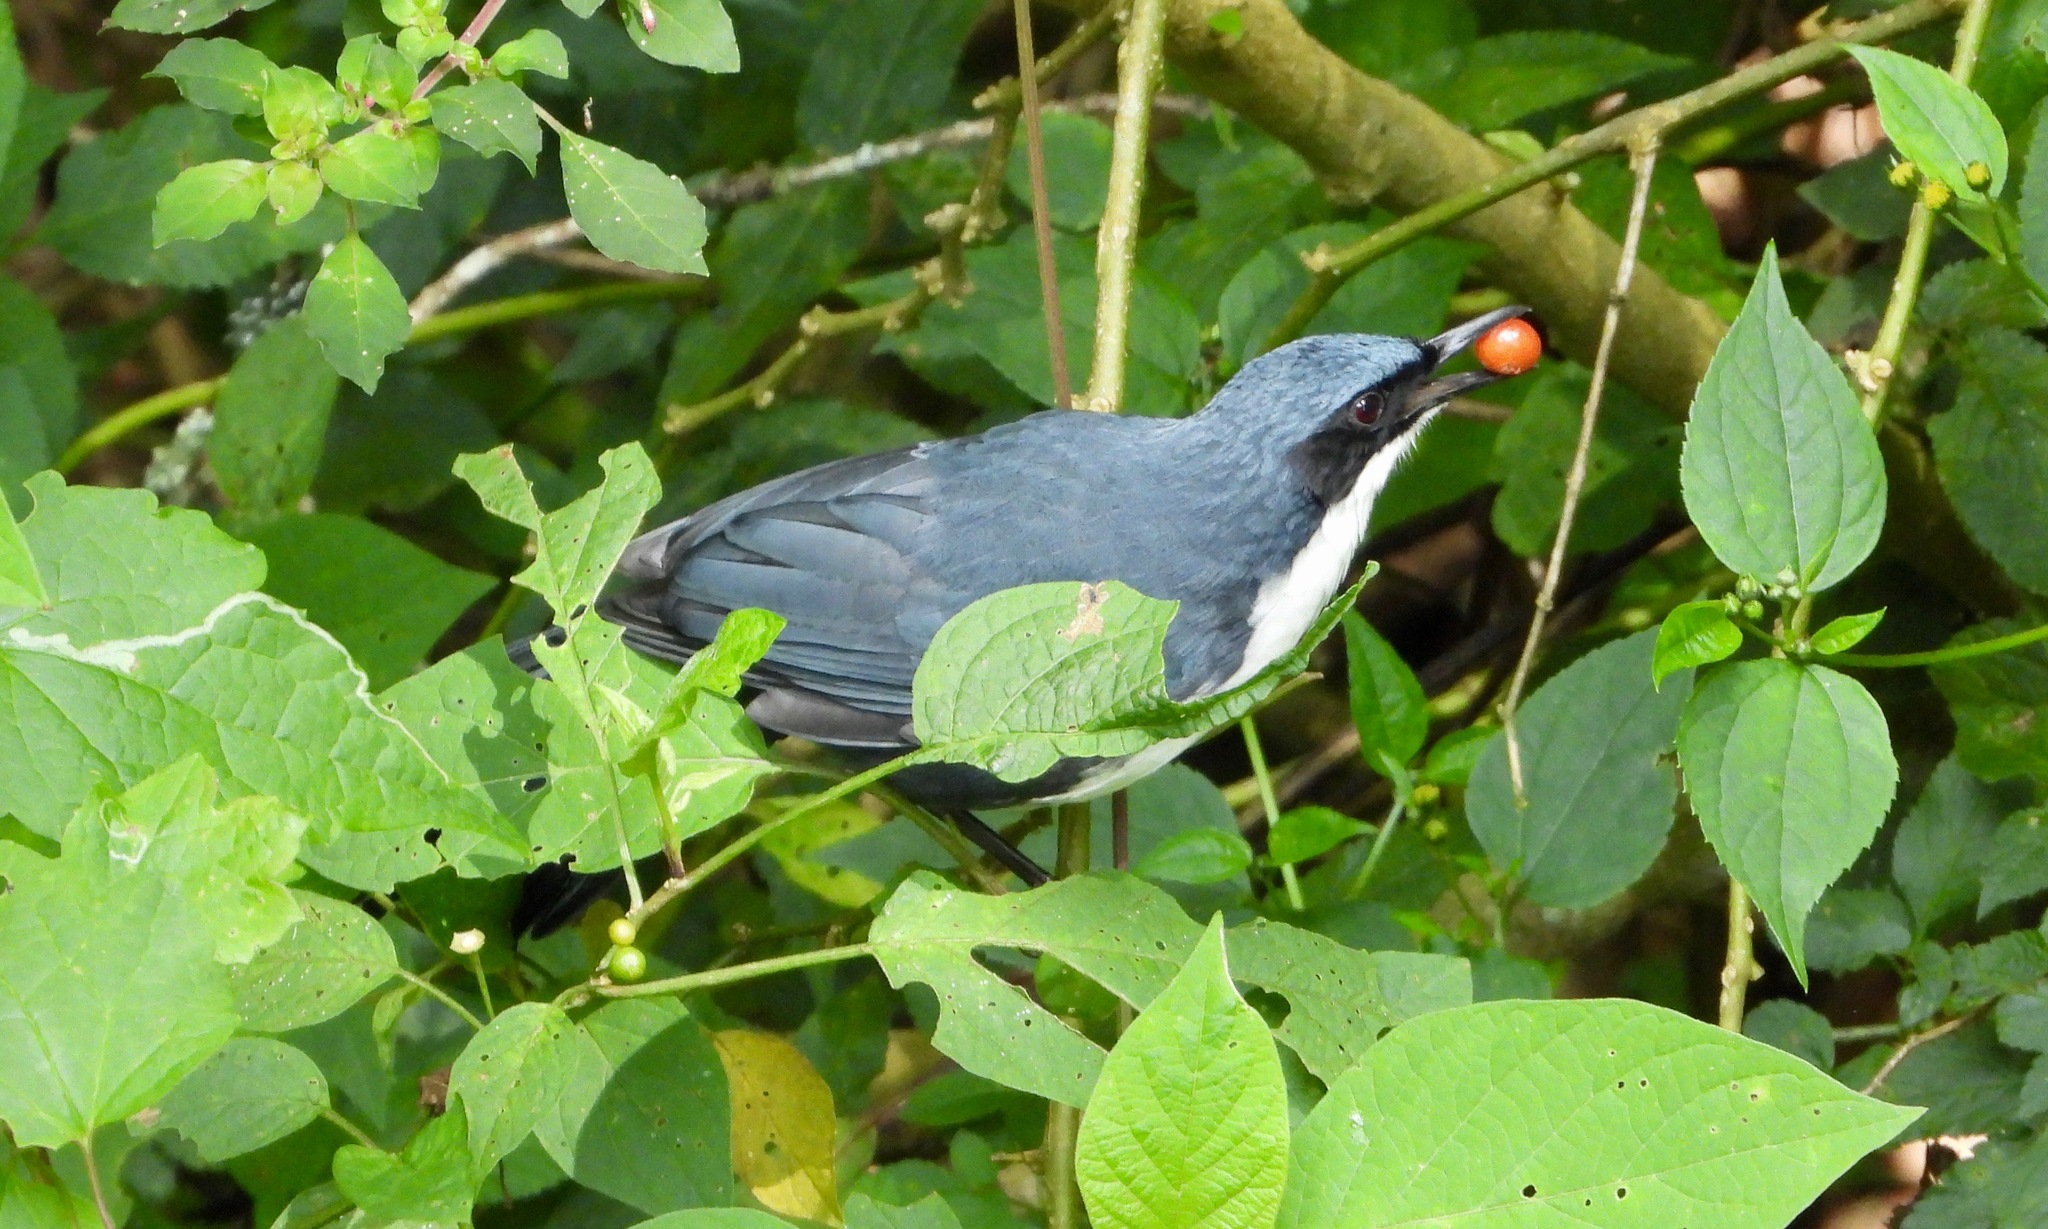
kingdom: Animalia
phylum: Chordata
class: Aves
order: Passeriformes
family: Mimidae
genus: Melanotis
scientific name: Melanotis hypoleucus
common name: Blue-and-white mockingbird
